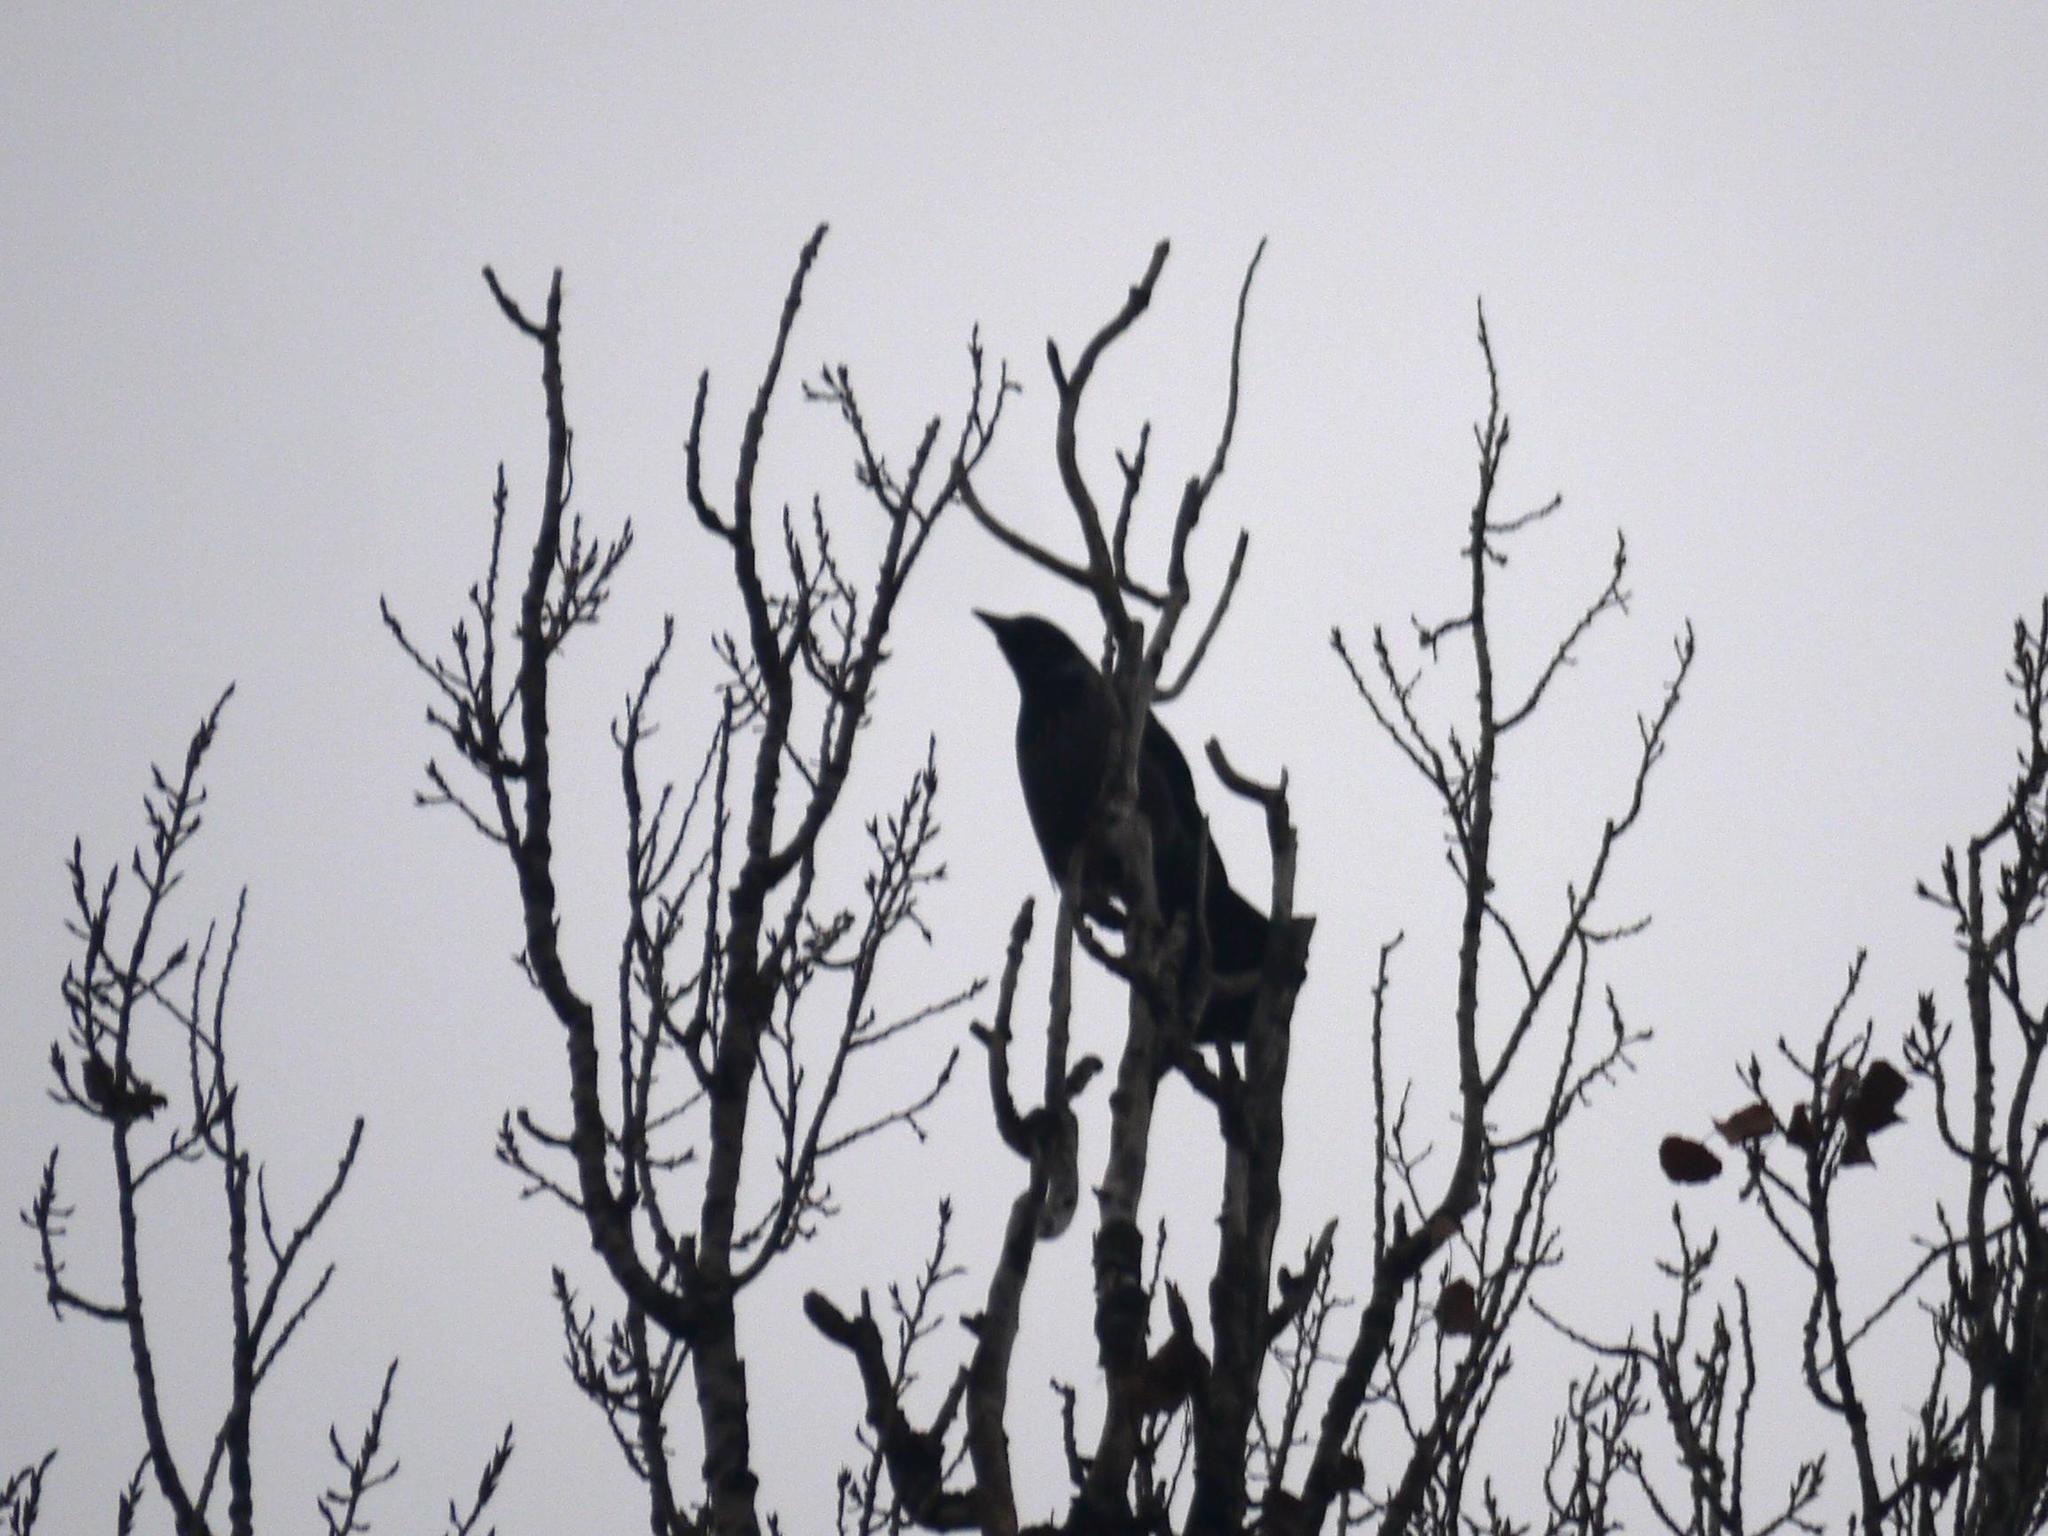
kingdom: Animalia
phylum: Chordata
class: Aves
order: Passeriformes
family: Corvidae
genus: Corvus
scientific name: Corvus cornix
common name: Hooded crow
